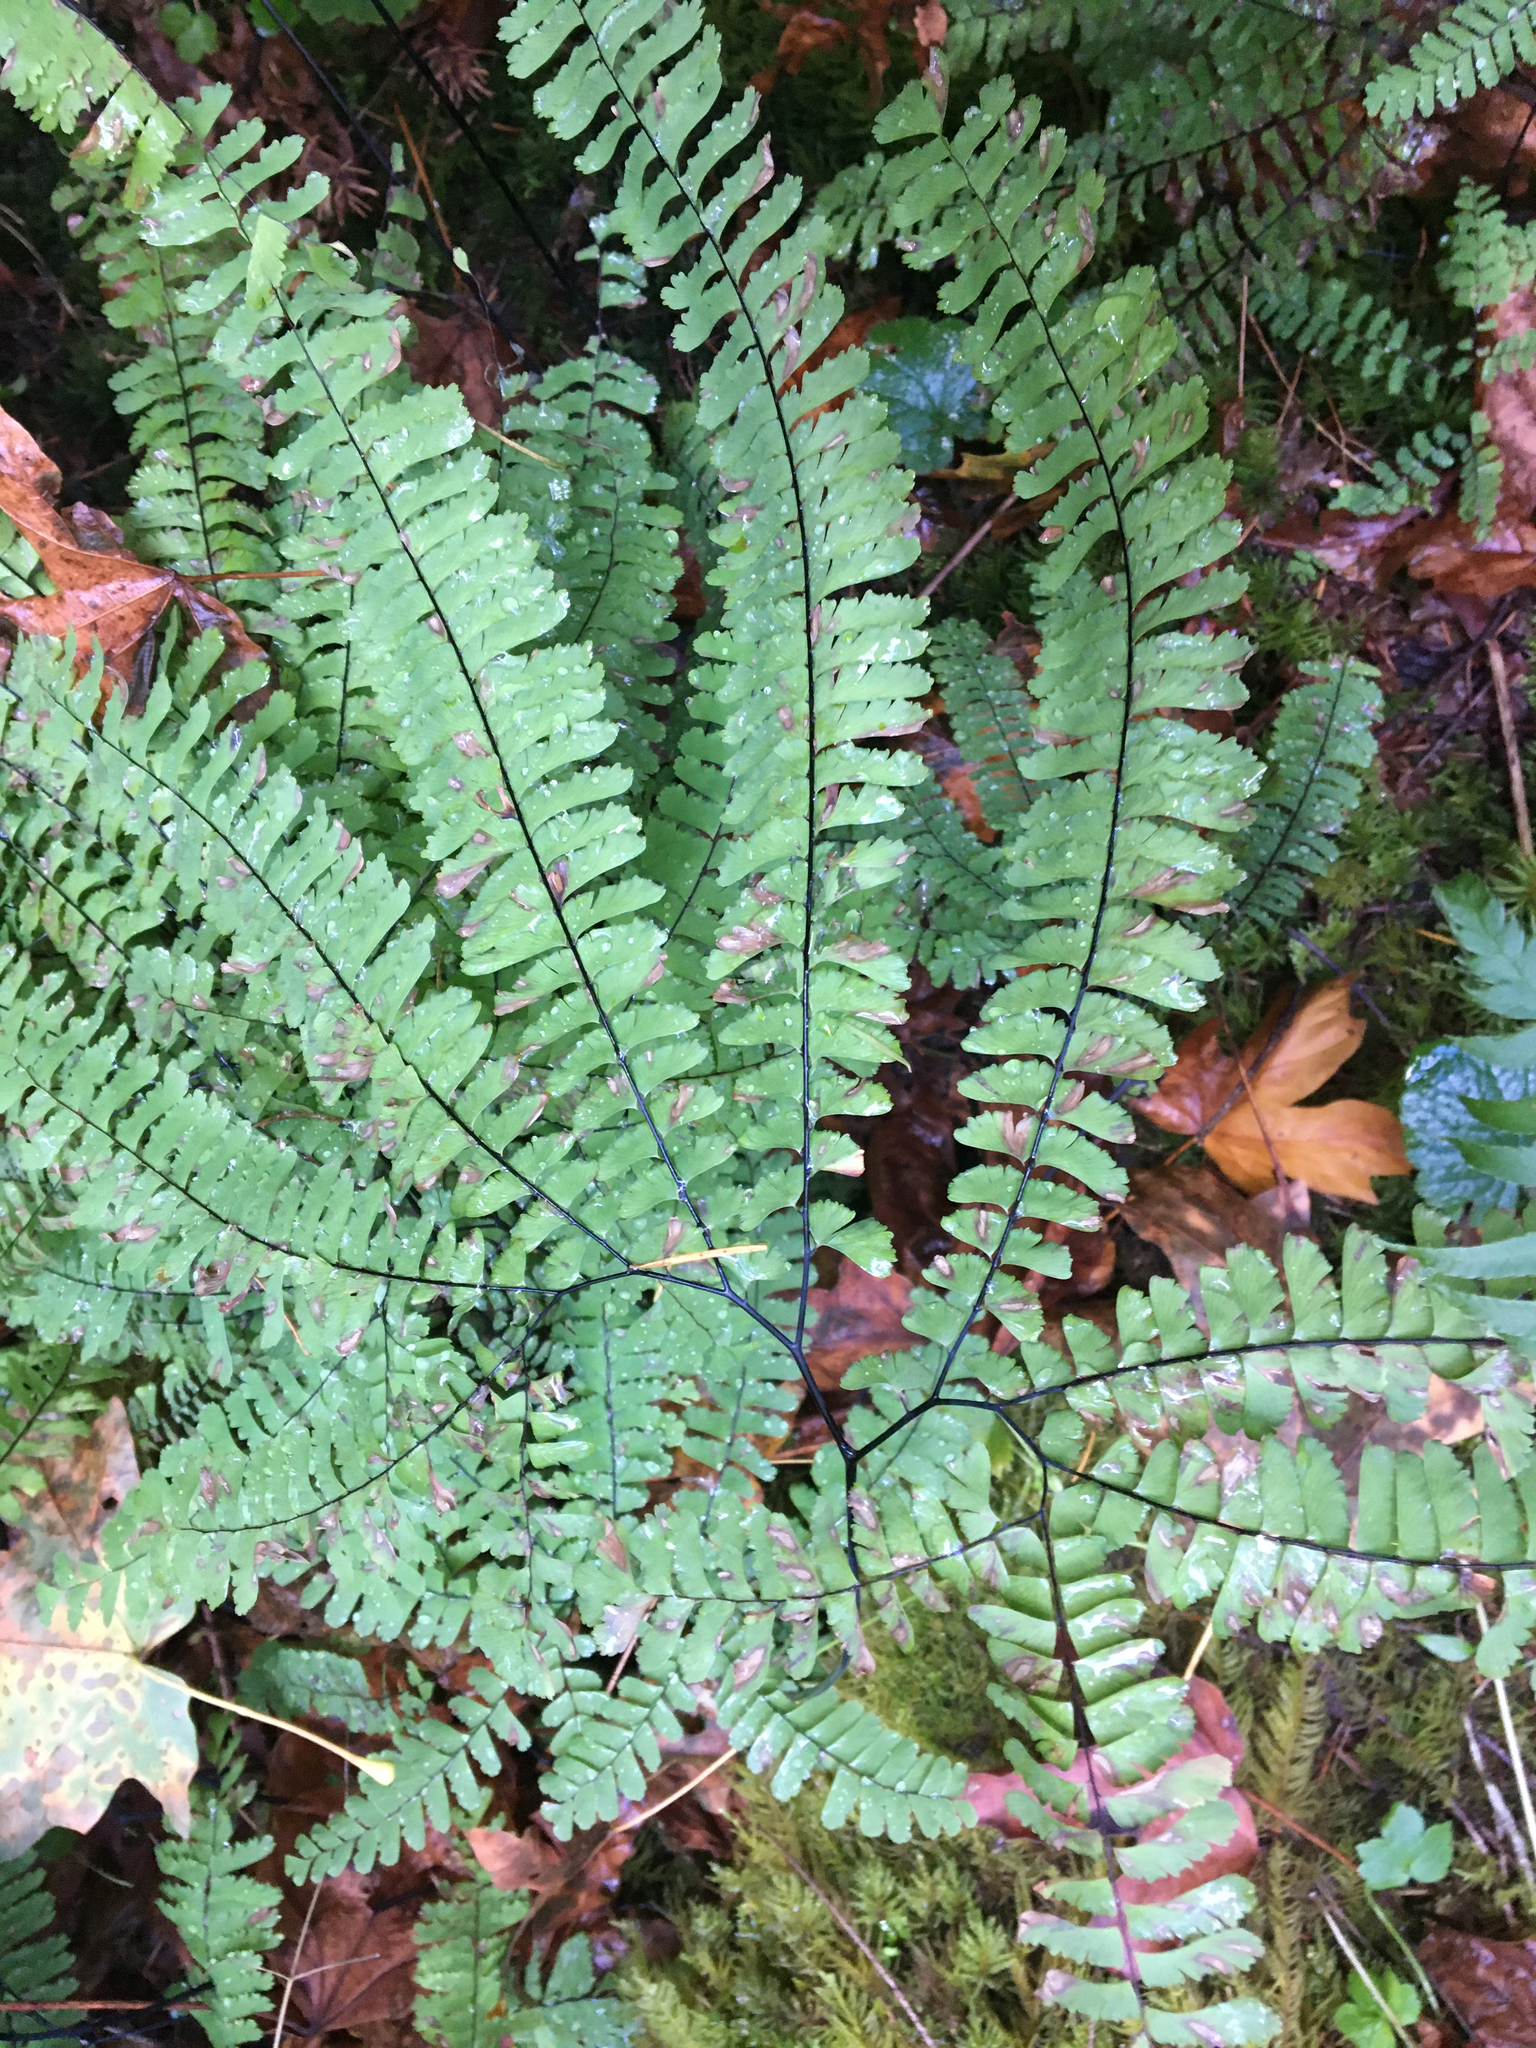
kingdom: Plantae
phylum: Tracheophyta
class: Polypodiopsida
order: Polypodiales
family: Pteridaceae
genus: Adiantum
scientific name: Adiantum aleuticum
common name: Aleutian maidenhair fern
